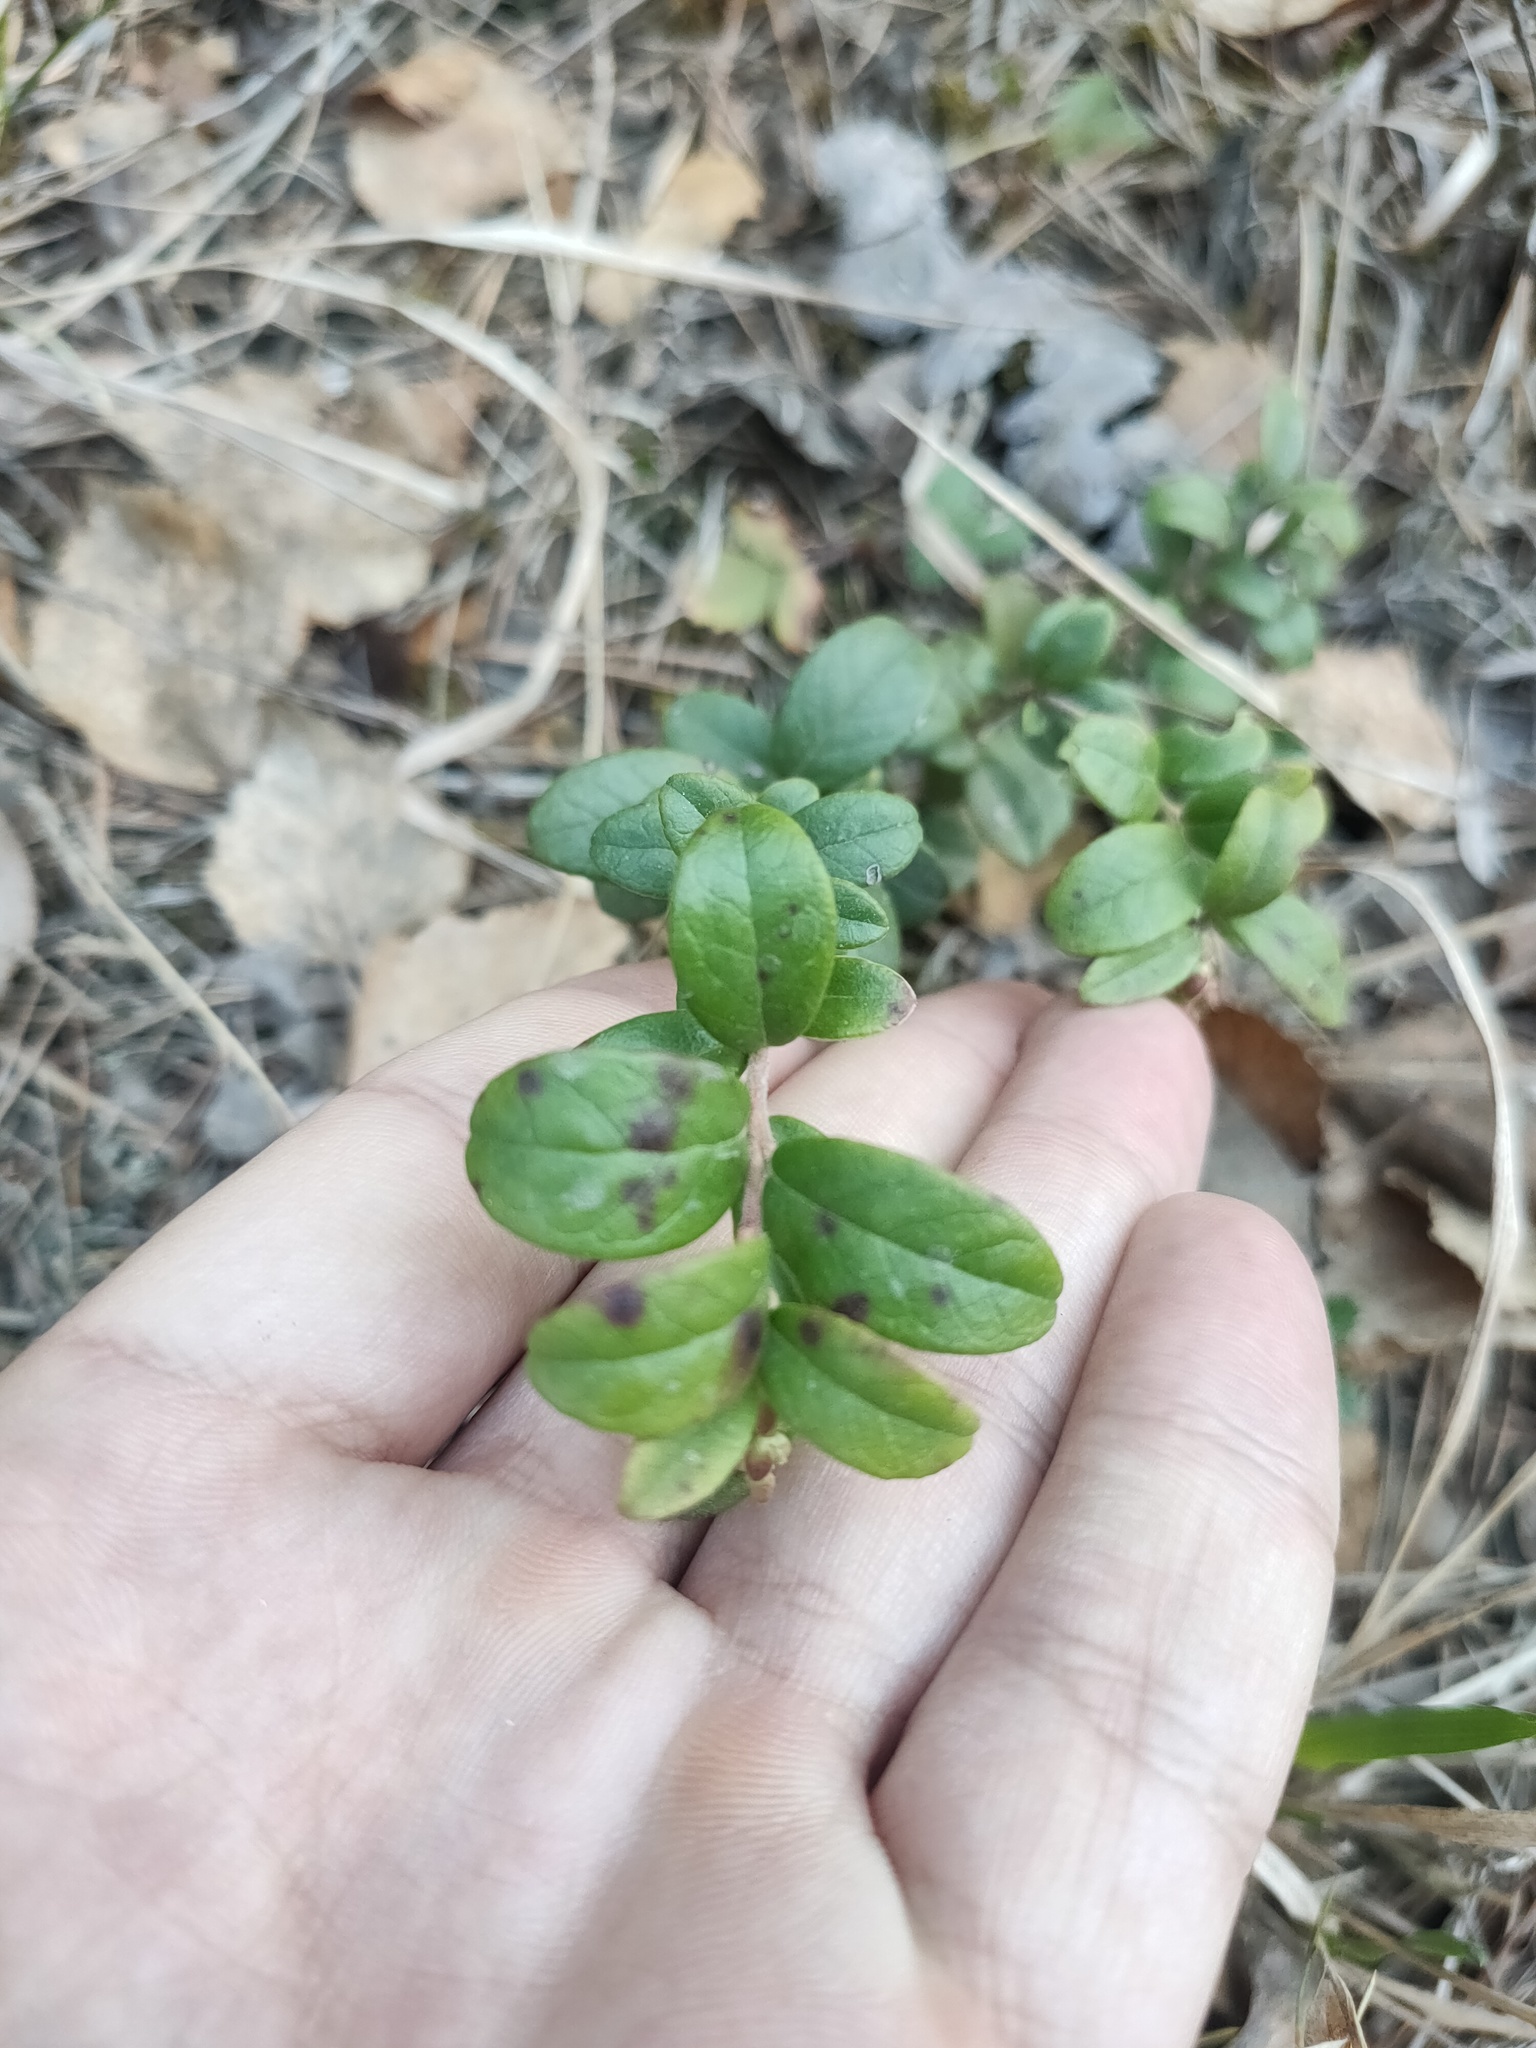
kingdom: Plantae
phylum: Tracheophyta
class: Magnoliopsida
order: Ericales
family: Ericaceae
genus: Vaccinium
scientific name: Vaccinium vitis-idaea
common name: Cowberry
